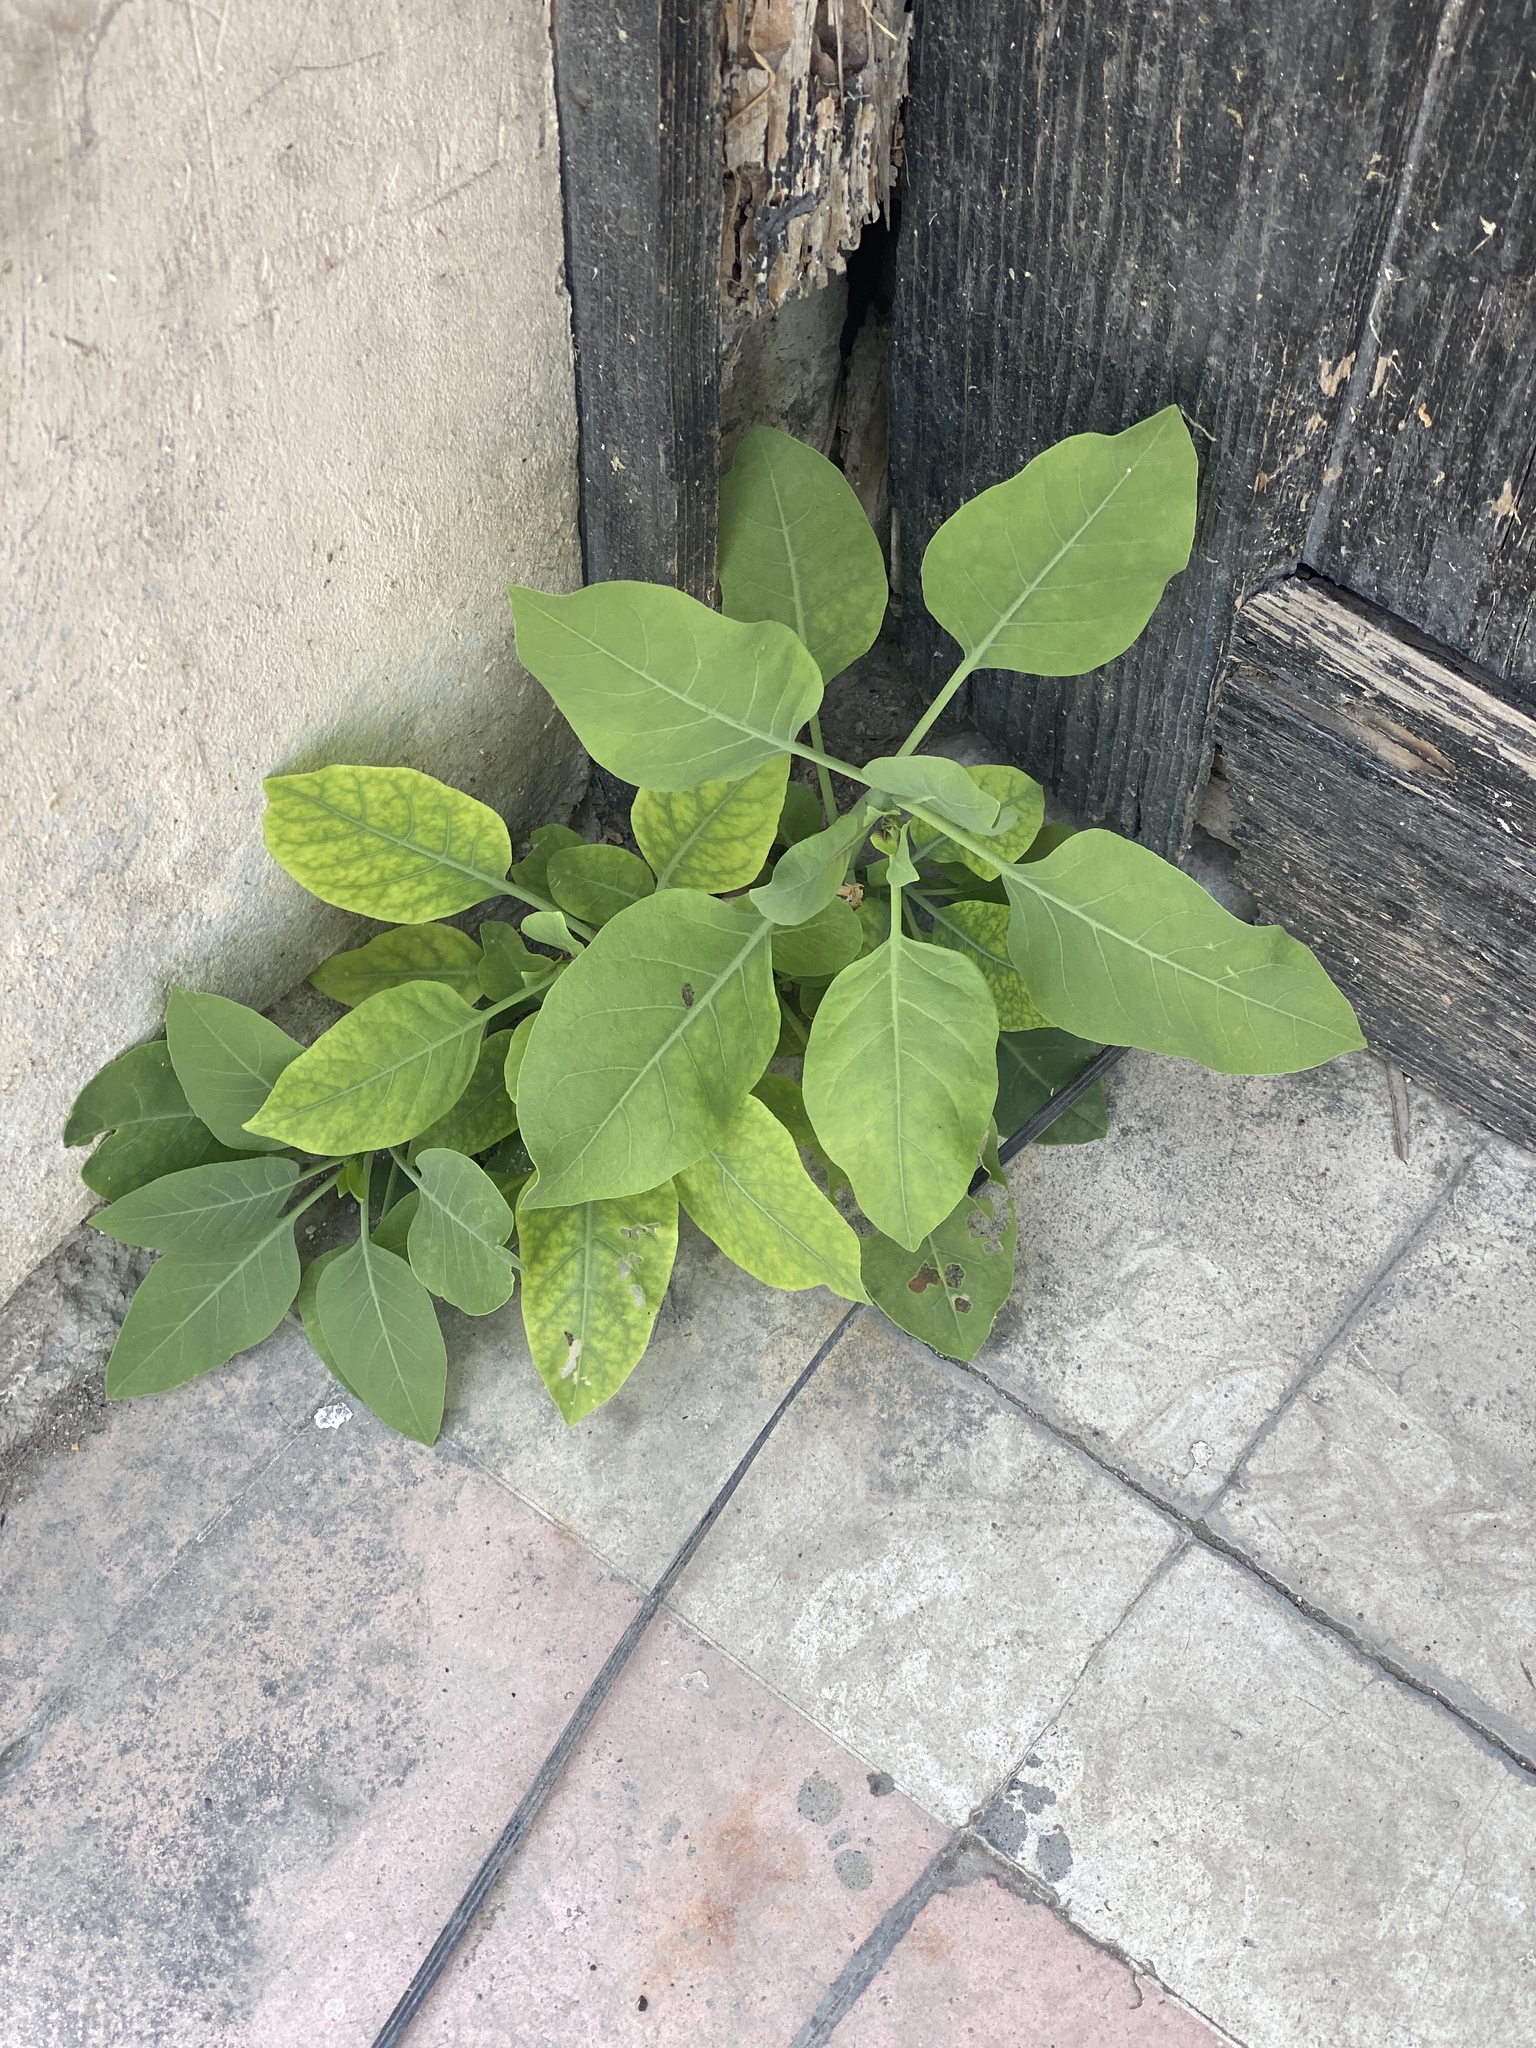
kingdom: Plantae
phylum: Tracheophyta
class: Magnoliopsida
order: Solanales
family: Solanaceae
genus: Nicotiana
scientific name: Nicotiana glauca
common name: Tree tobacco
